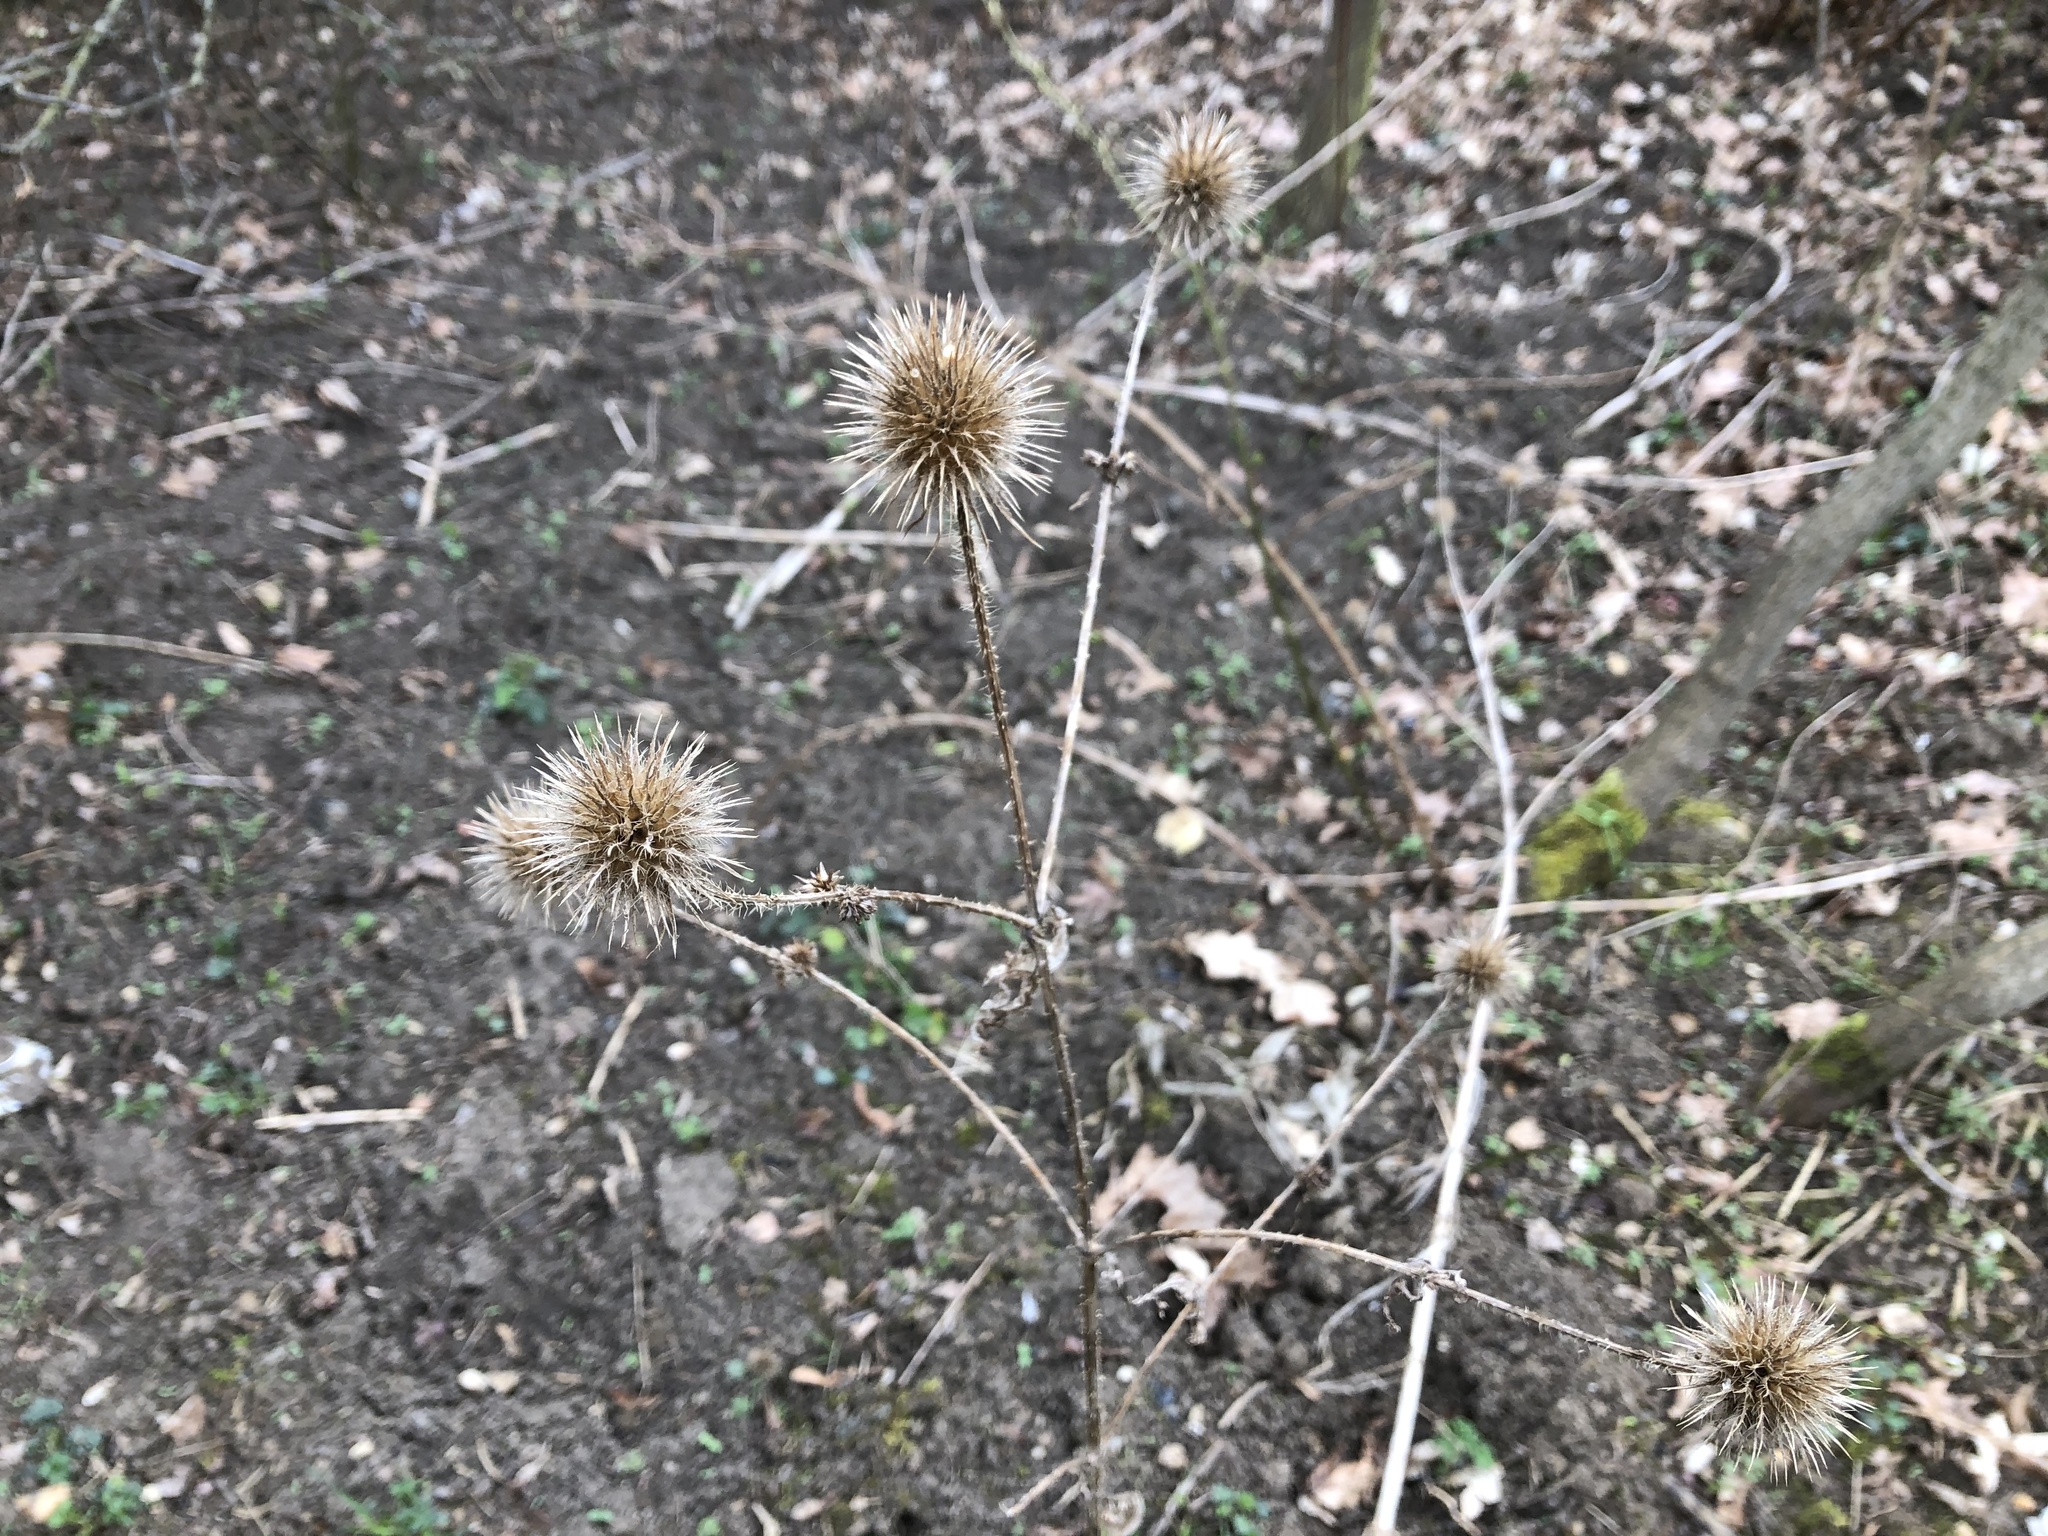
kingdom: Plantae
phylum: Tracheophyta
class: Magnoliopsida
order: Dipsacales
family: Caprifoliaceae
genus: Dipsacus
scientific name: Dipsacus strigosus
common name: Yellow-flowered teasel
